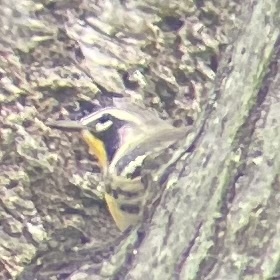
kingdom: Animalia
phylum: Chordata
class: Aves
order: Passeriformes
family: Parulidae
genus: Setophaga
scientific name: Setophaga dominica
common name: Yellow-throated warbler
